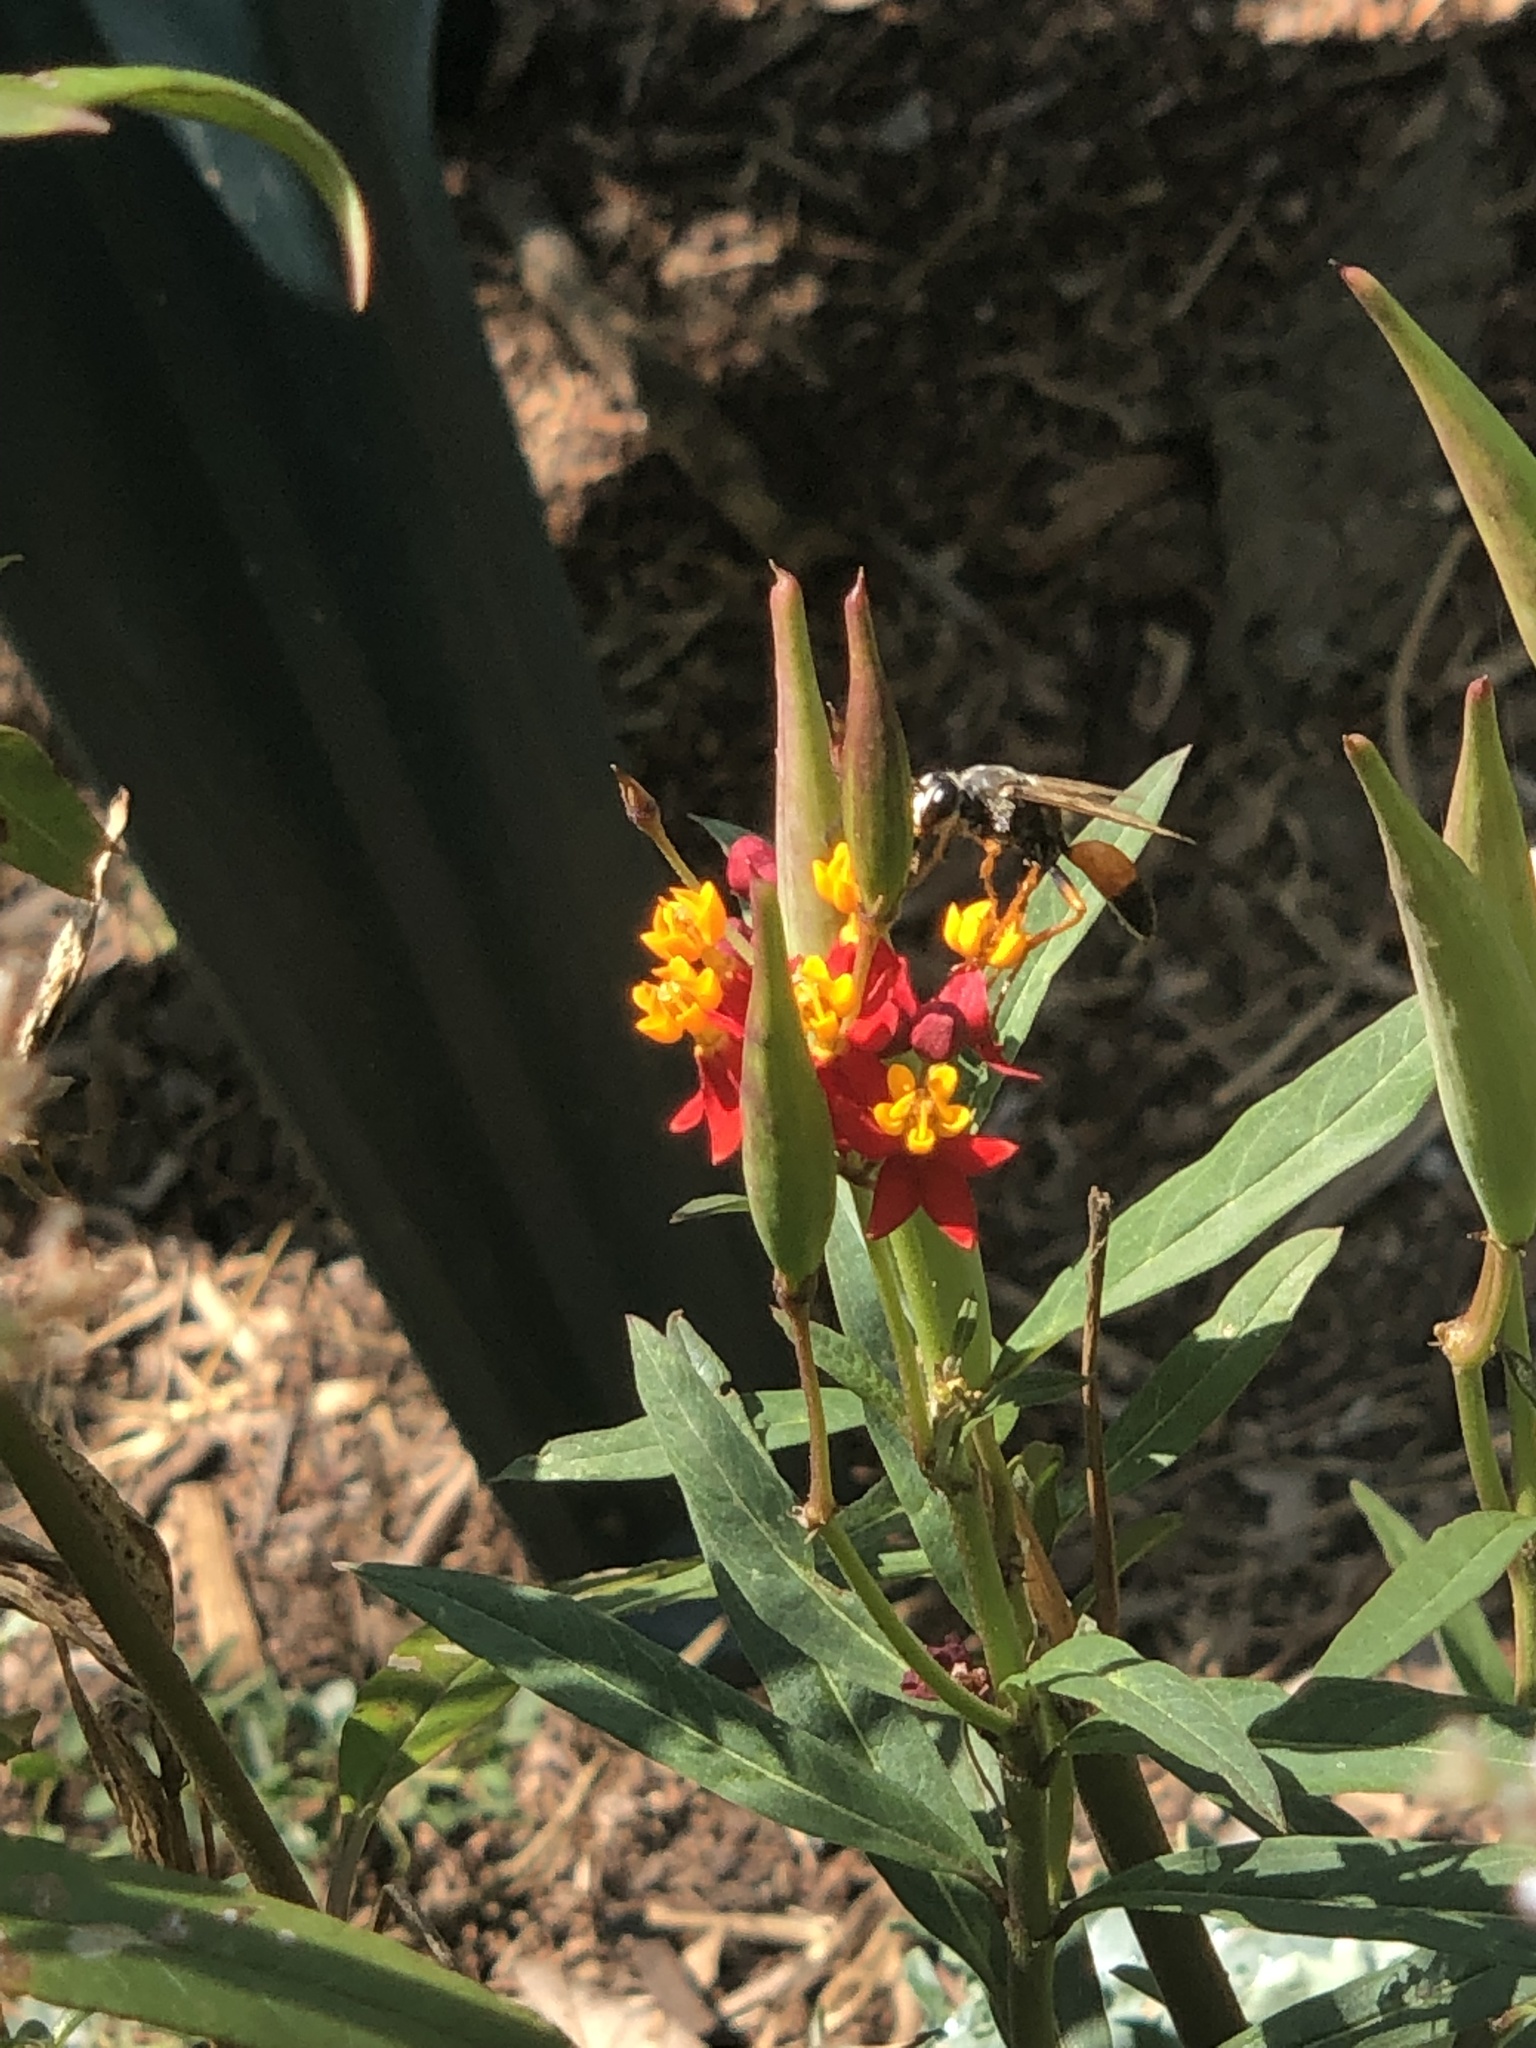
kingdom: Animalia
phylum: Arthropoda
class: Insecta
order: Hymenoptera
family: Sphecidae
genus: Sphex
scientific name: Sphex ichneumoneus
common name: Great golden digger wasp
